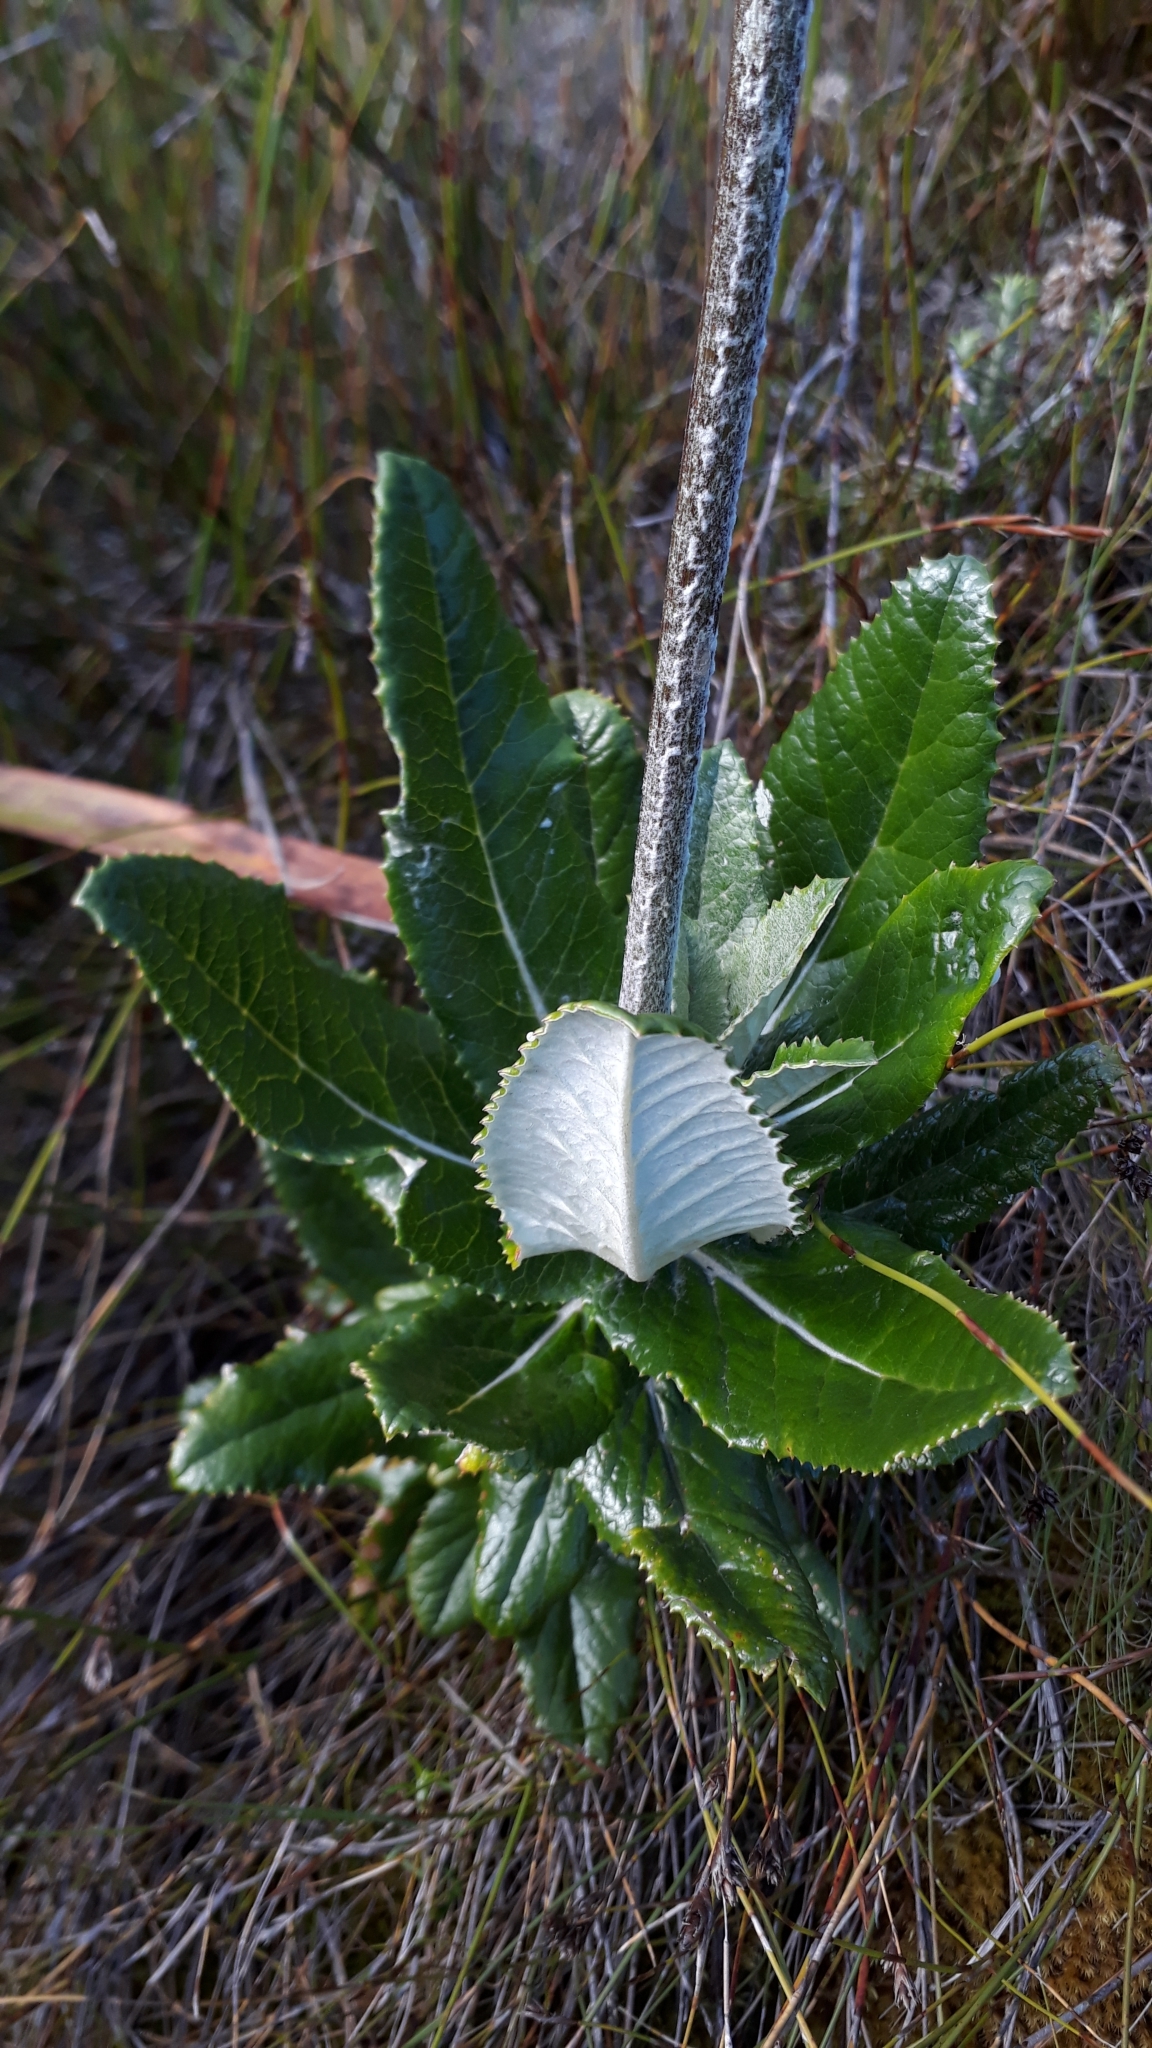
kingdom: Plantae
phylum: Tracheophyta
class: Magnoliopsida
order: Apiales
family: Apiaceae
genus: Hermas
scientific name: Hermas villosa
